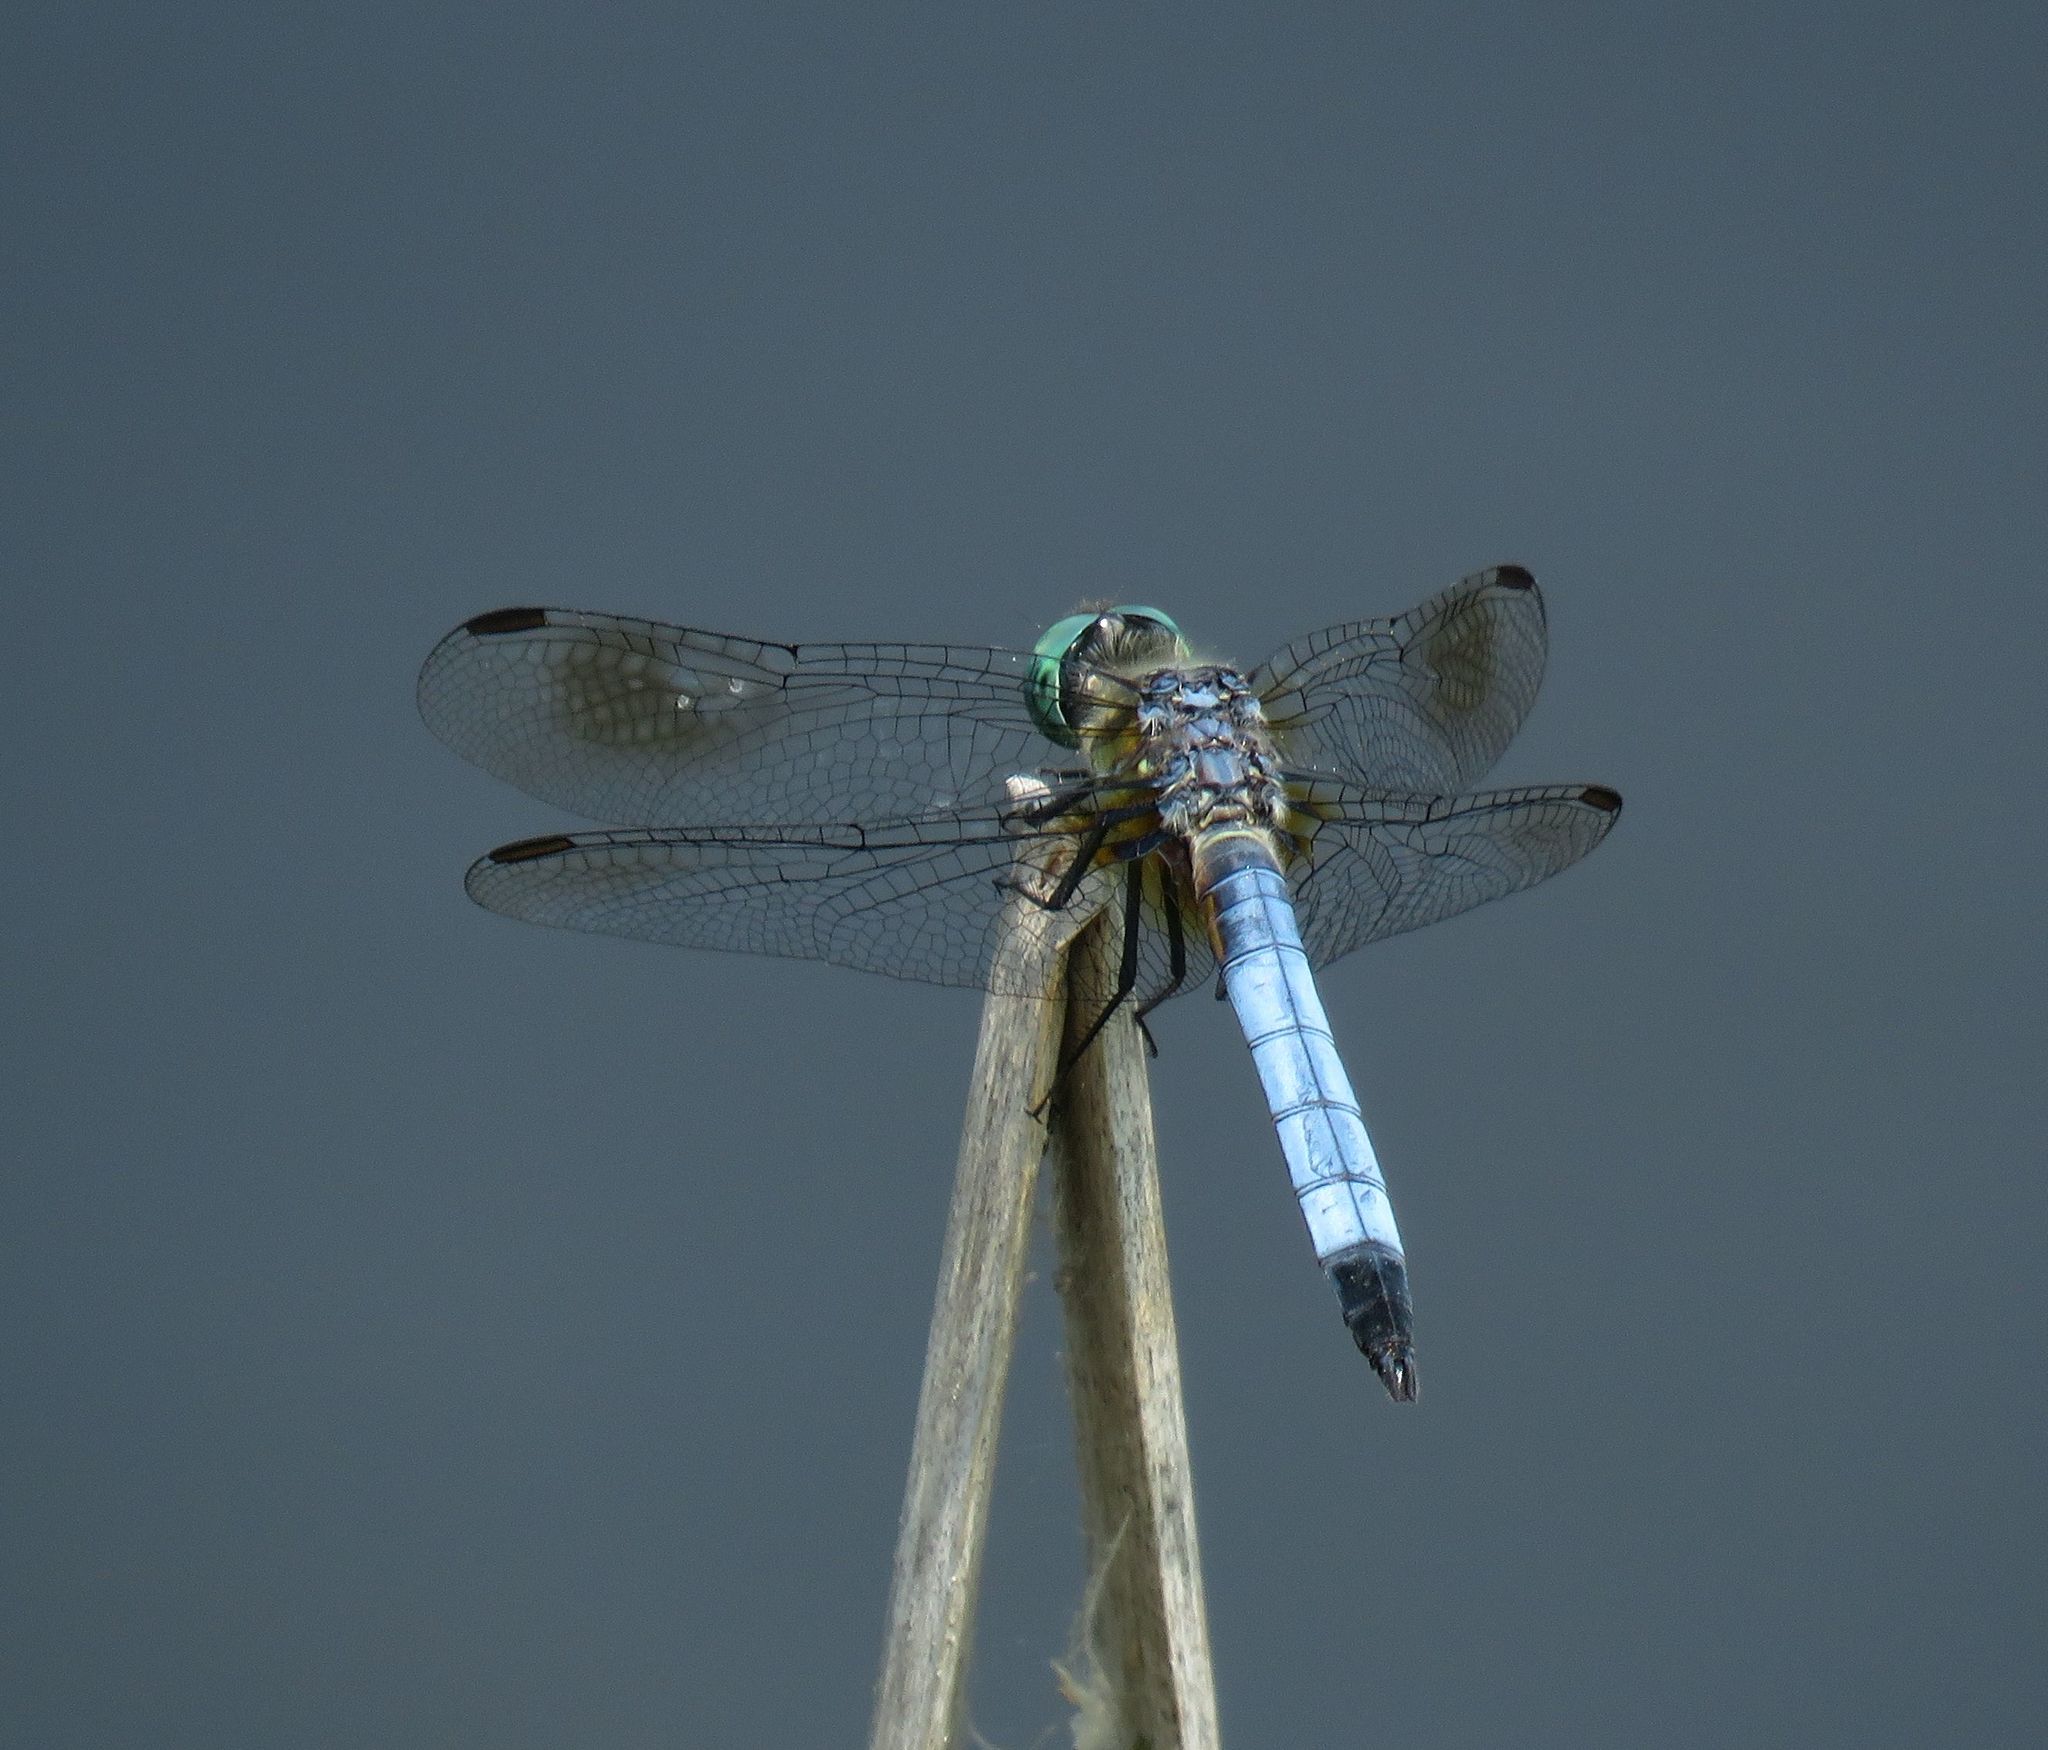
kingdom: Animalia
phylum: Arthropoda
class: Insecta
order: Odonata
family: Libellulidae
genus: Pachydiplax
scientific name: Pachydiplax longipennis
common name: Blue dasher
